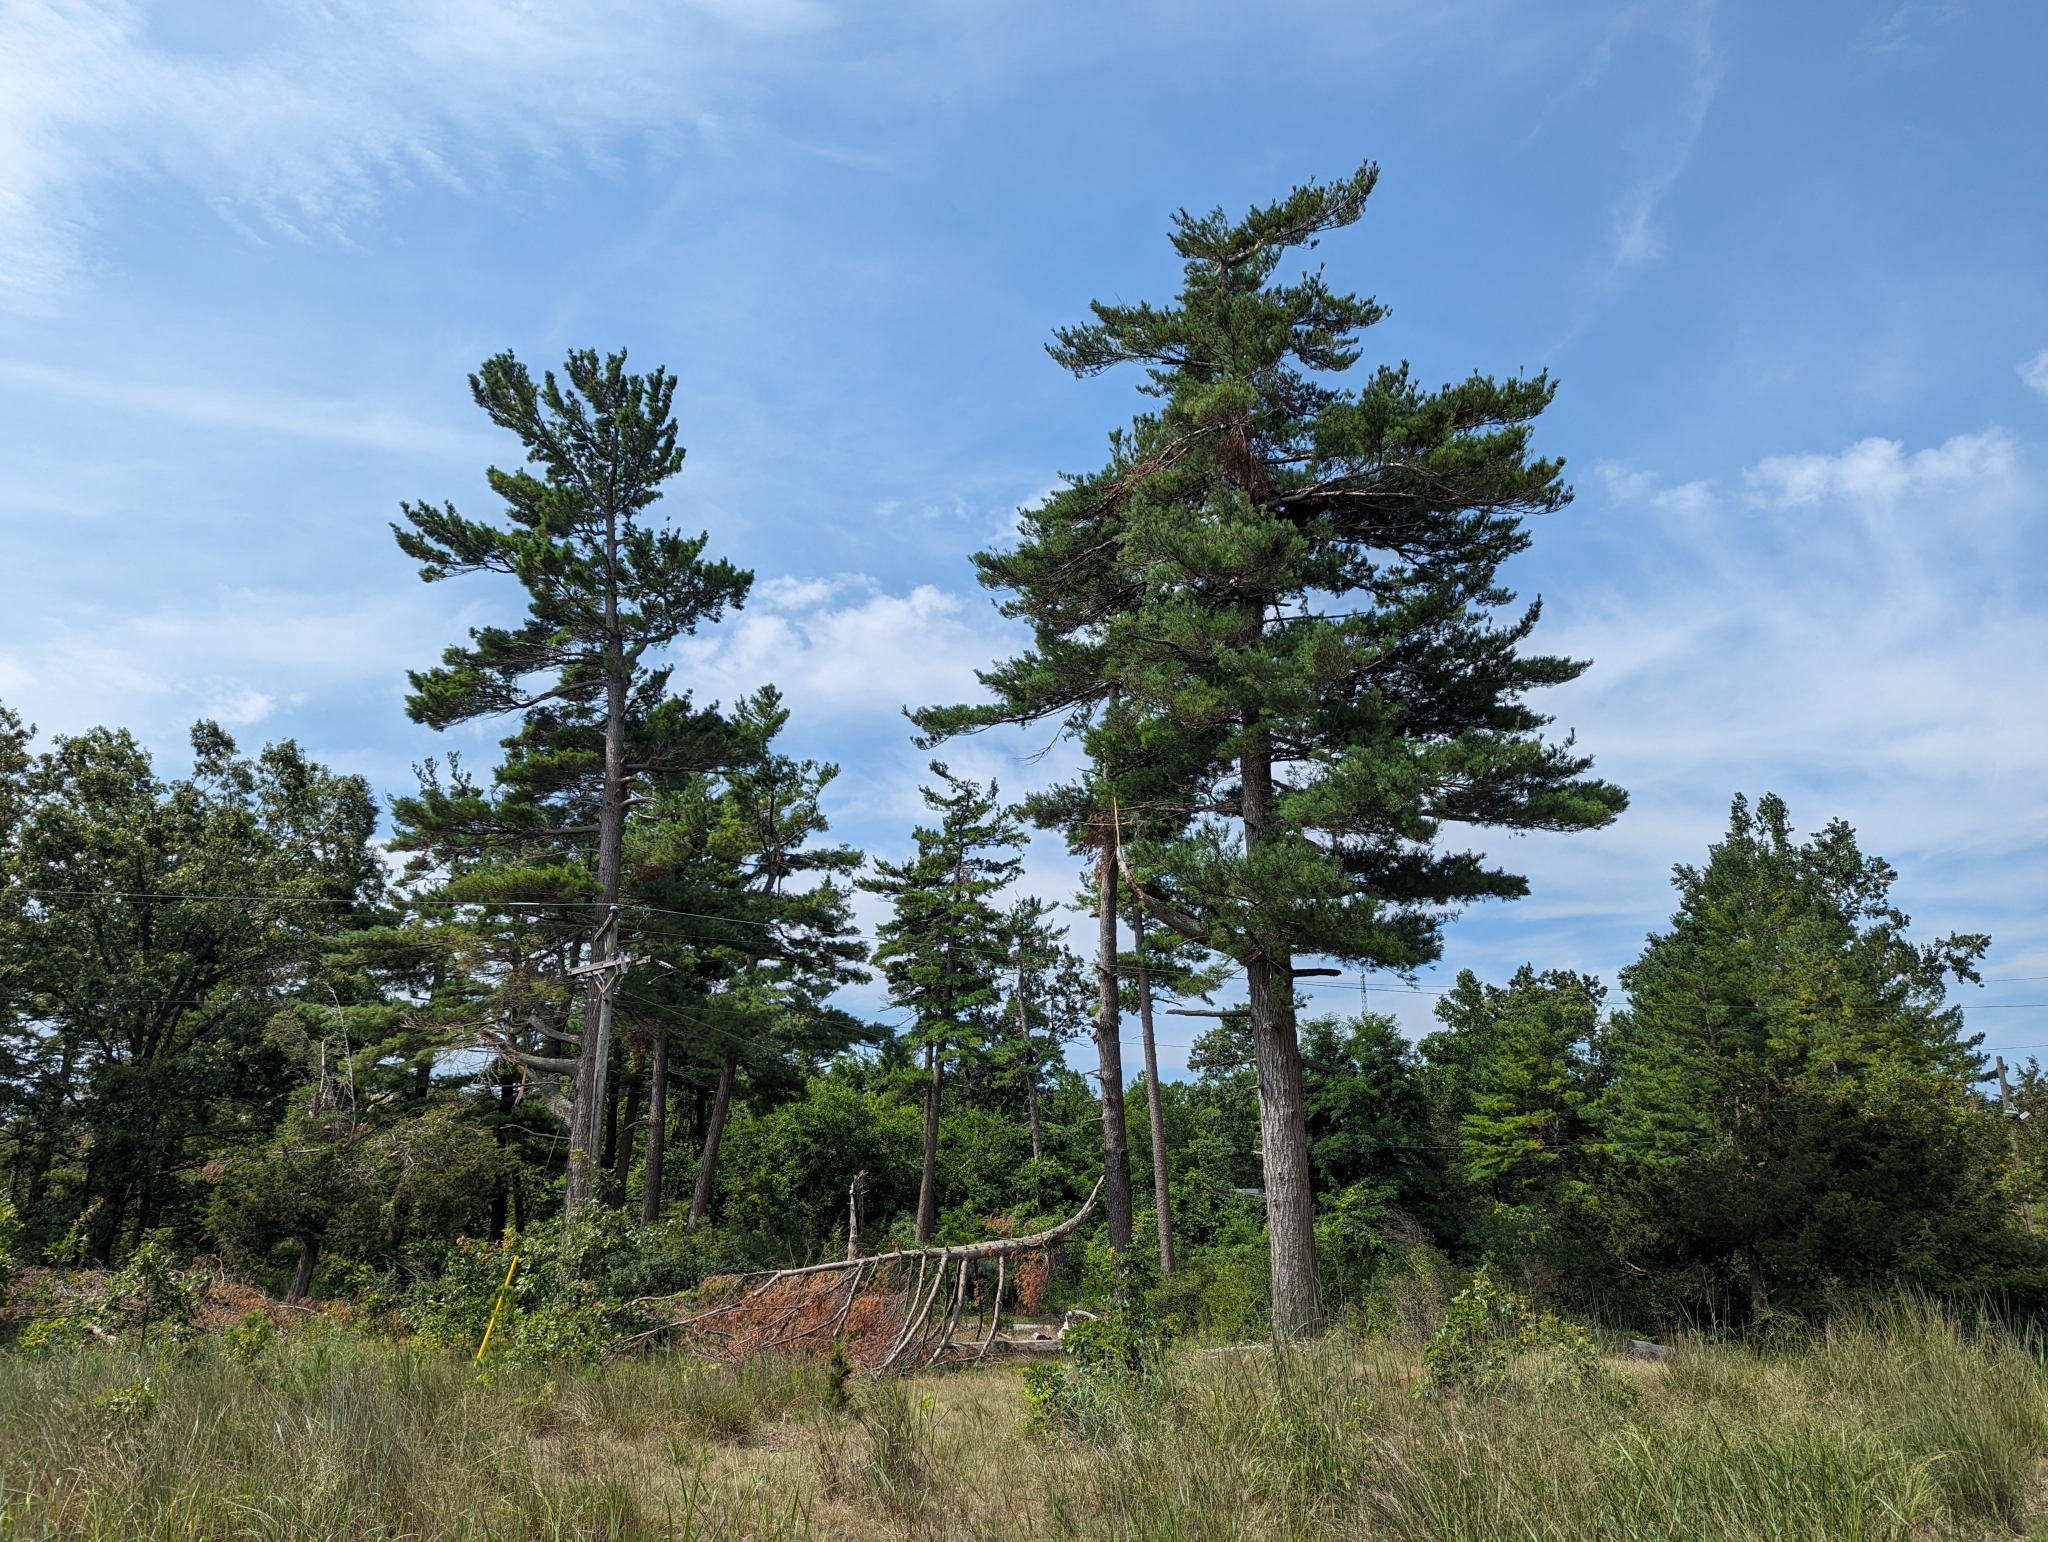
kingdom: Plantae
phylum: Tracheophyta
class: Pinopsida
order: Pinales
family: Pinaceae
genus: Pinus
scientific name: Pinus strobus
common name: Weymouth pine
